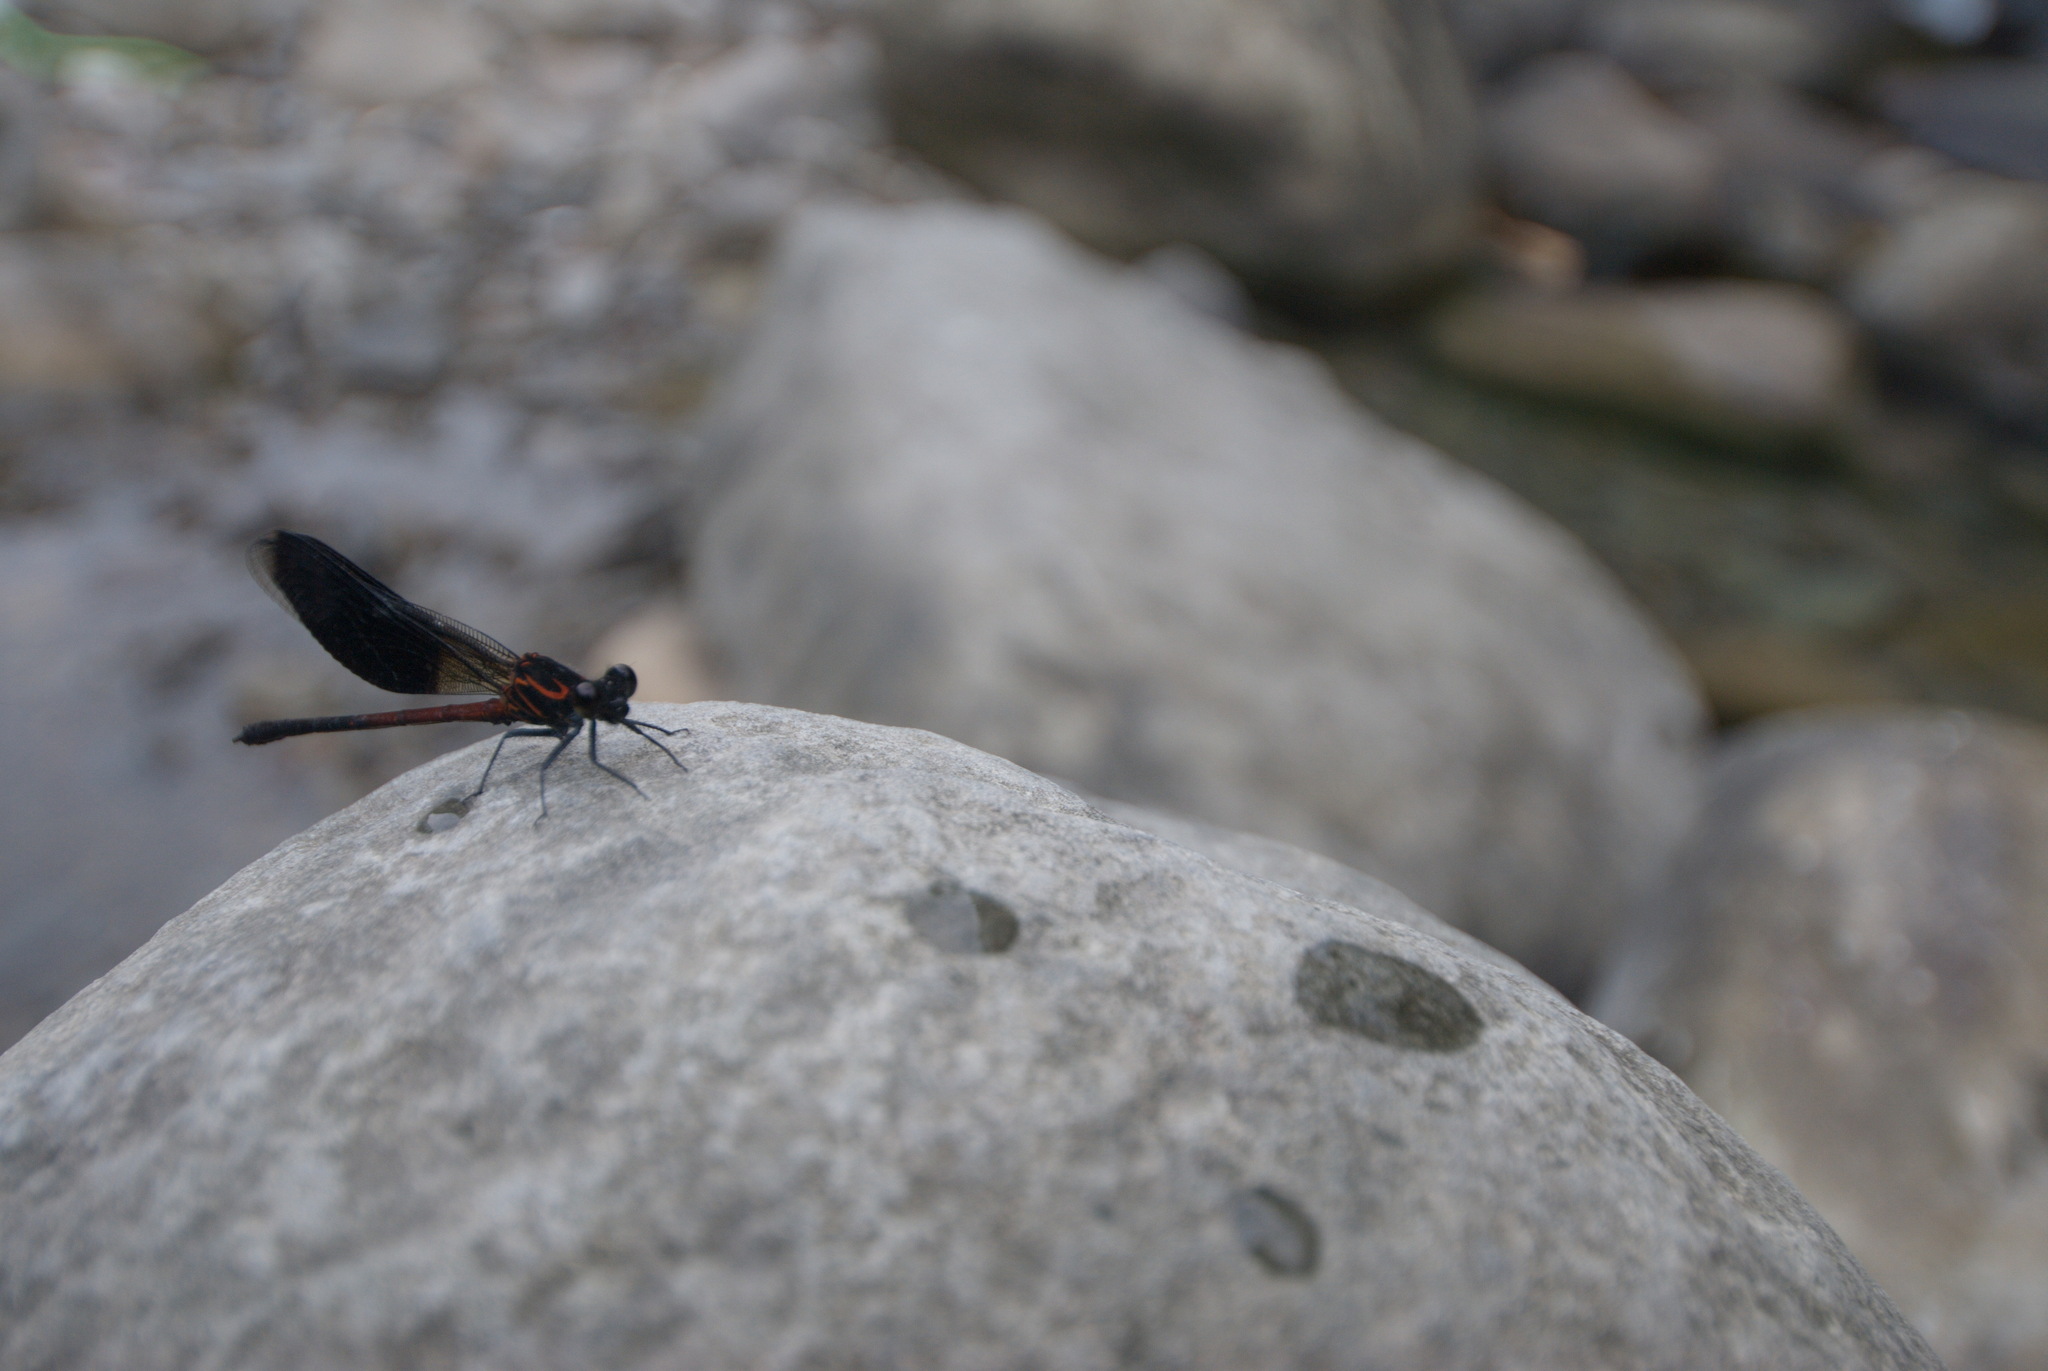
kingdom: Animalia
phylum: Arthropoda
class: Insecta
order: Odonata
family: Euphaeidae
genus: Euphaea
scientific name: Euphaea formosa
